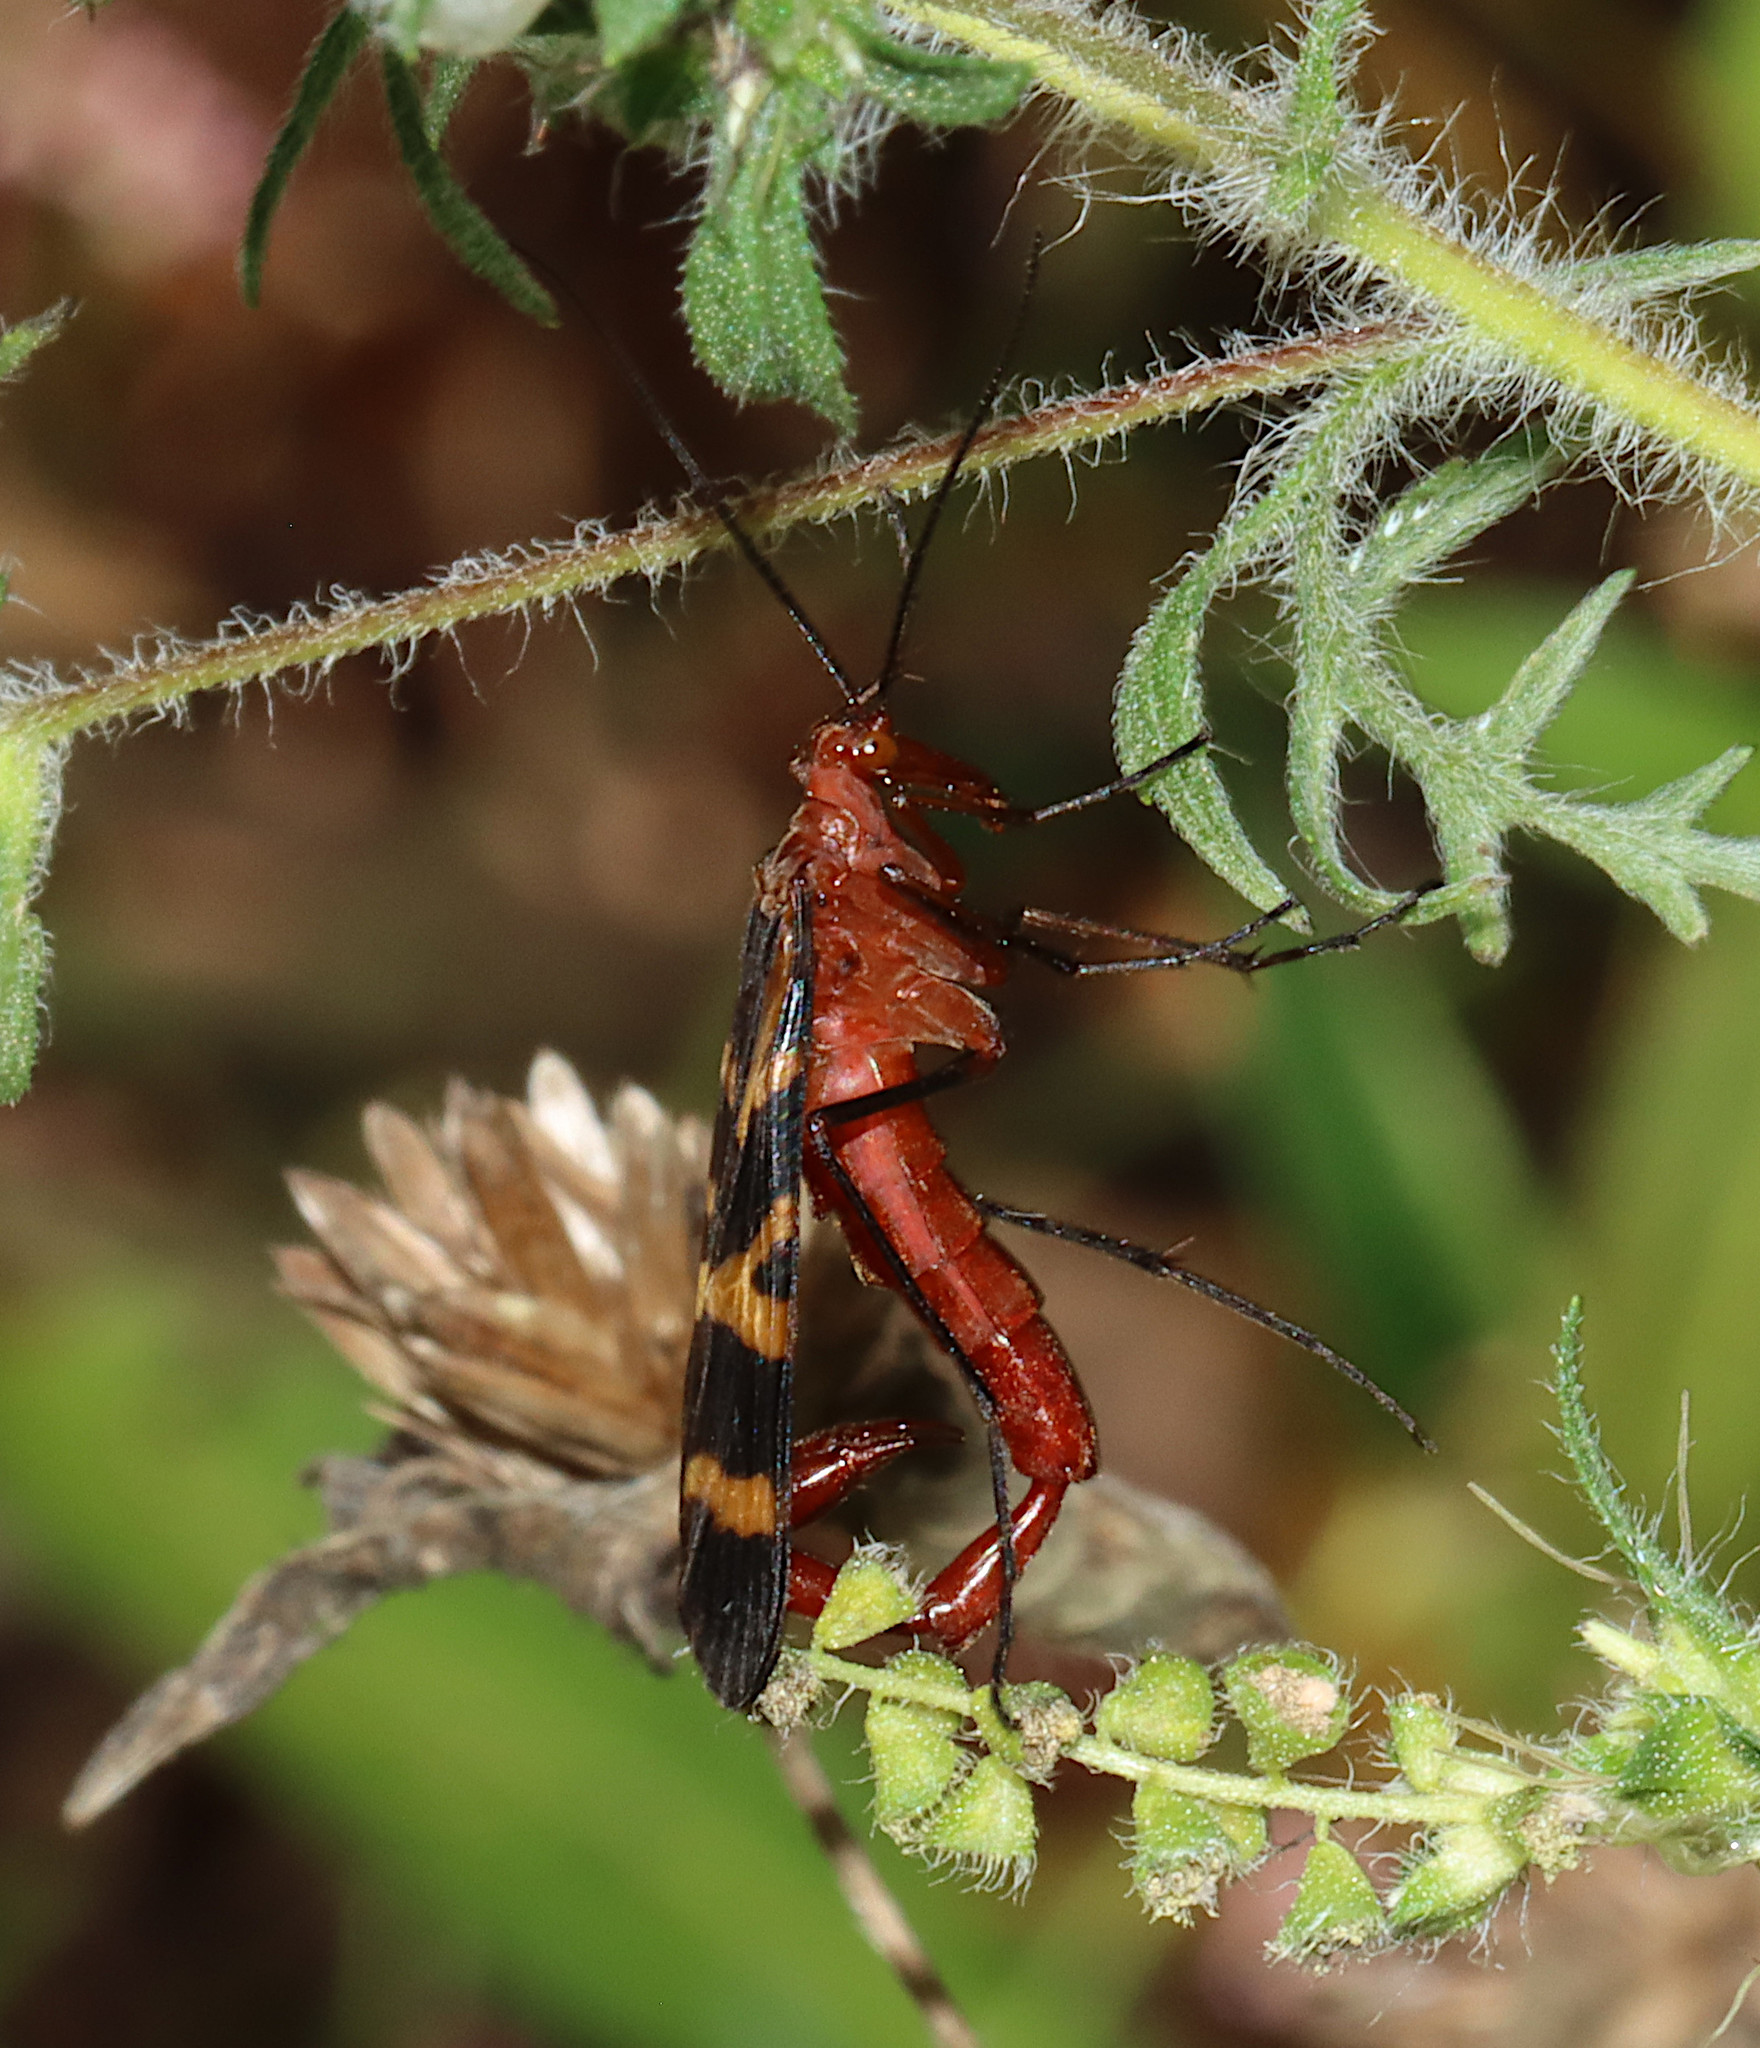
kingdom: Animalia
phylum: Arthropoda
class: Insecta
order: Mecoptera
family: Panorpidae
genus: Panorpa
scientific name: Panorpa nuptialis
